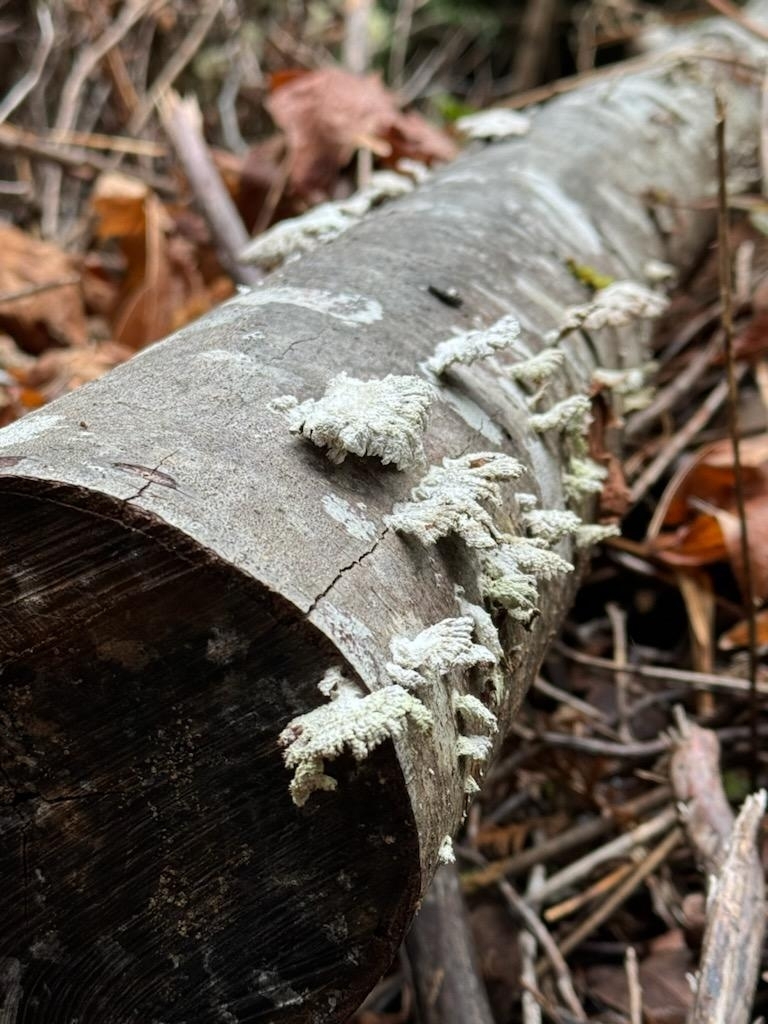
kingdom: Fungi
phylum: Basidiomycota
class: Agaricomycetes
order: Agaricales
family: Schizophyllaceae
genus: Schizophyllum
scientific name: Schizophyllum commune
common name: Common porecrust
